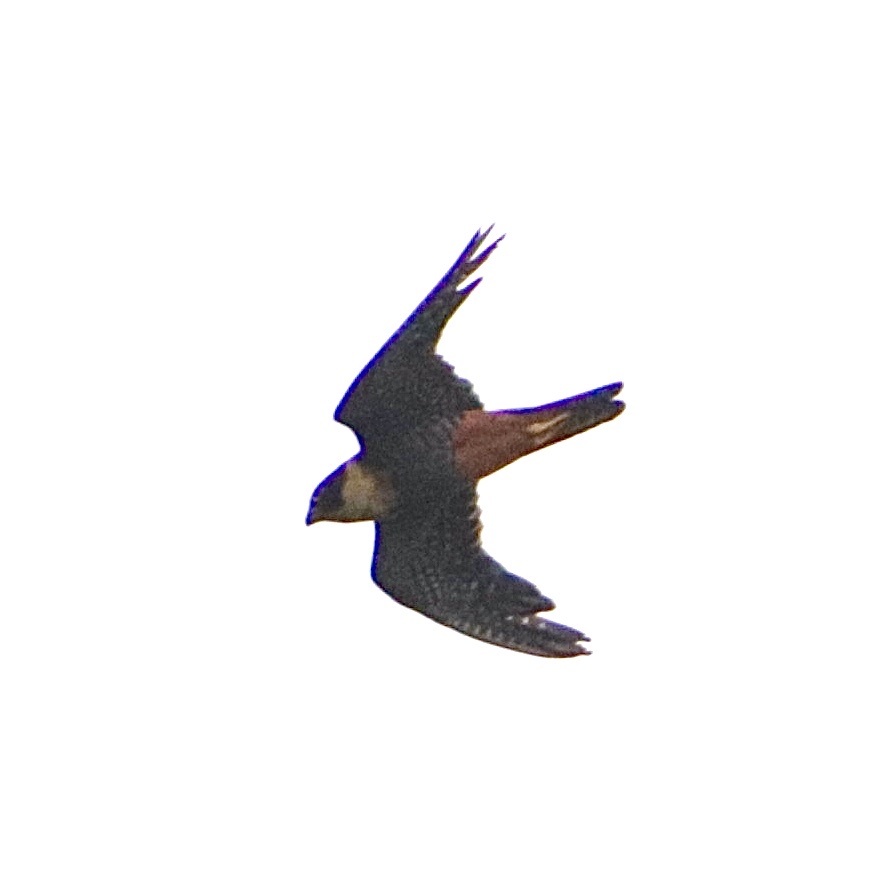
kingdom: Animalia
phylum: Chordata
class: Aves
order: Falconiformes
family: Falconidae
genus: Falco
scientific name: Falco rufigularis
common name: Bat falcon
